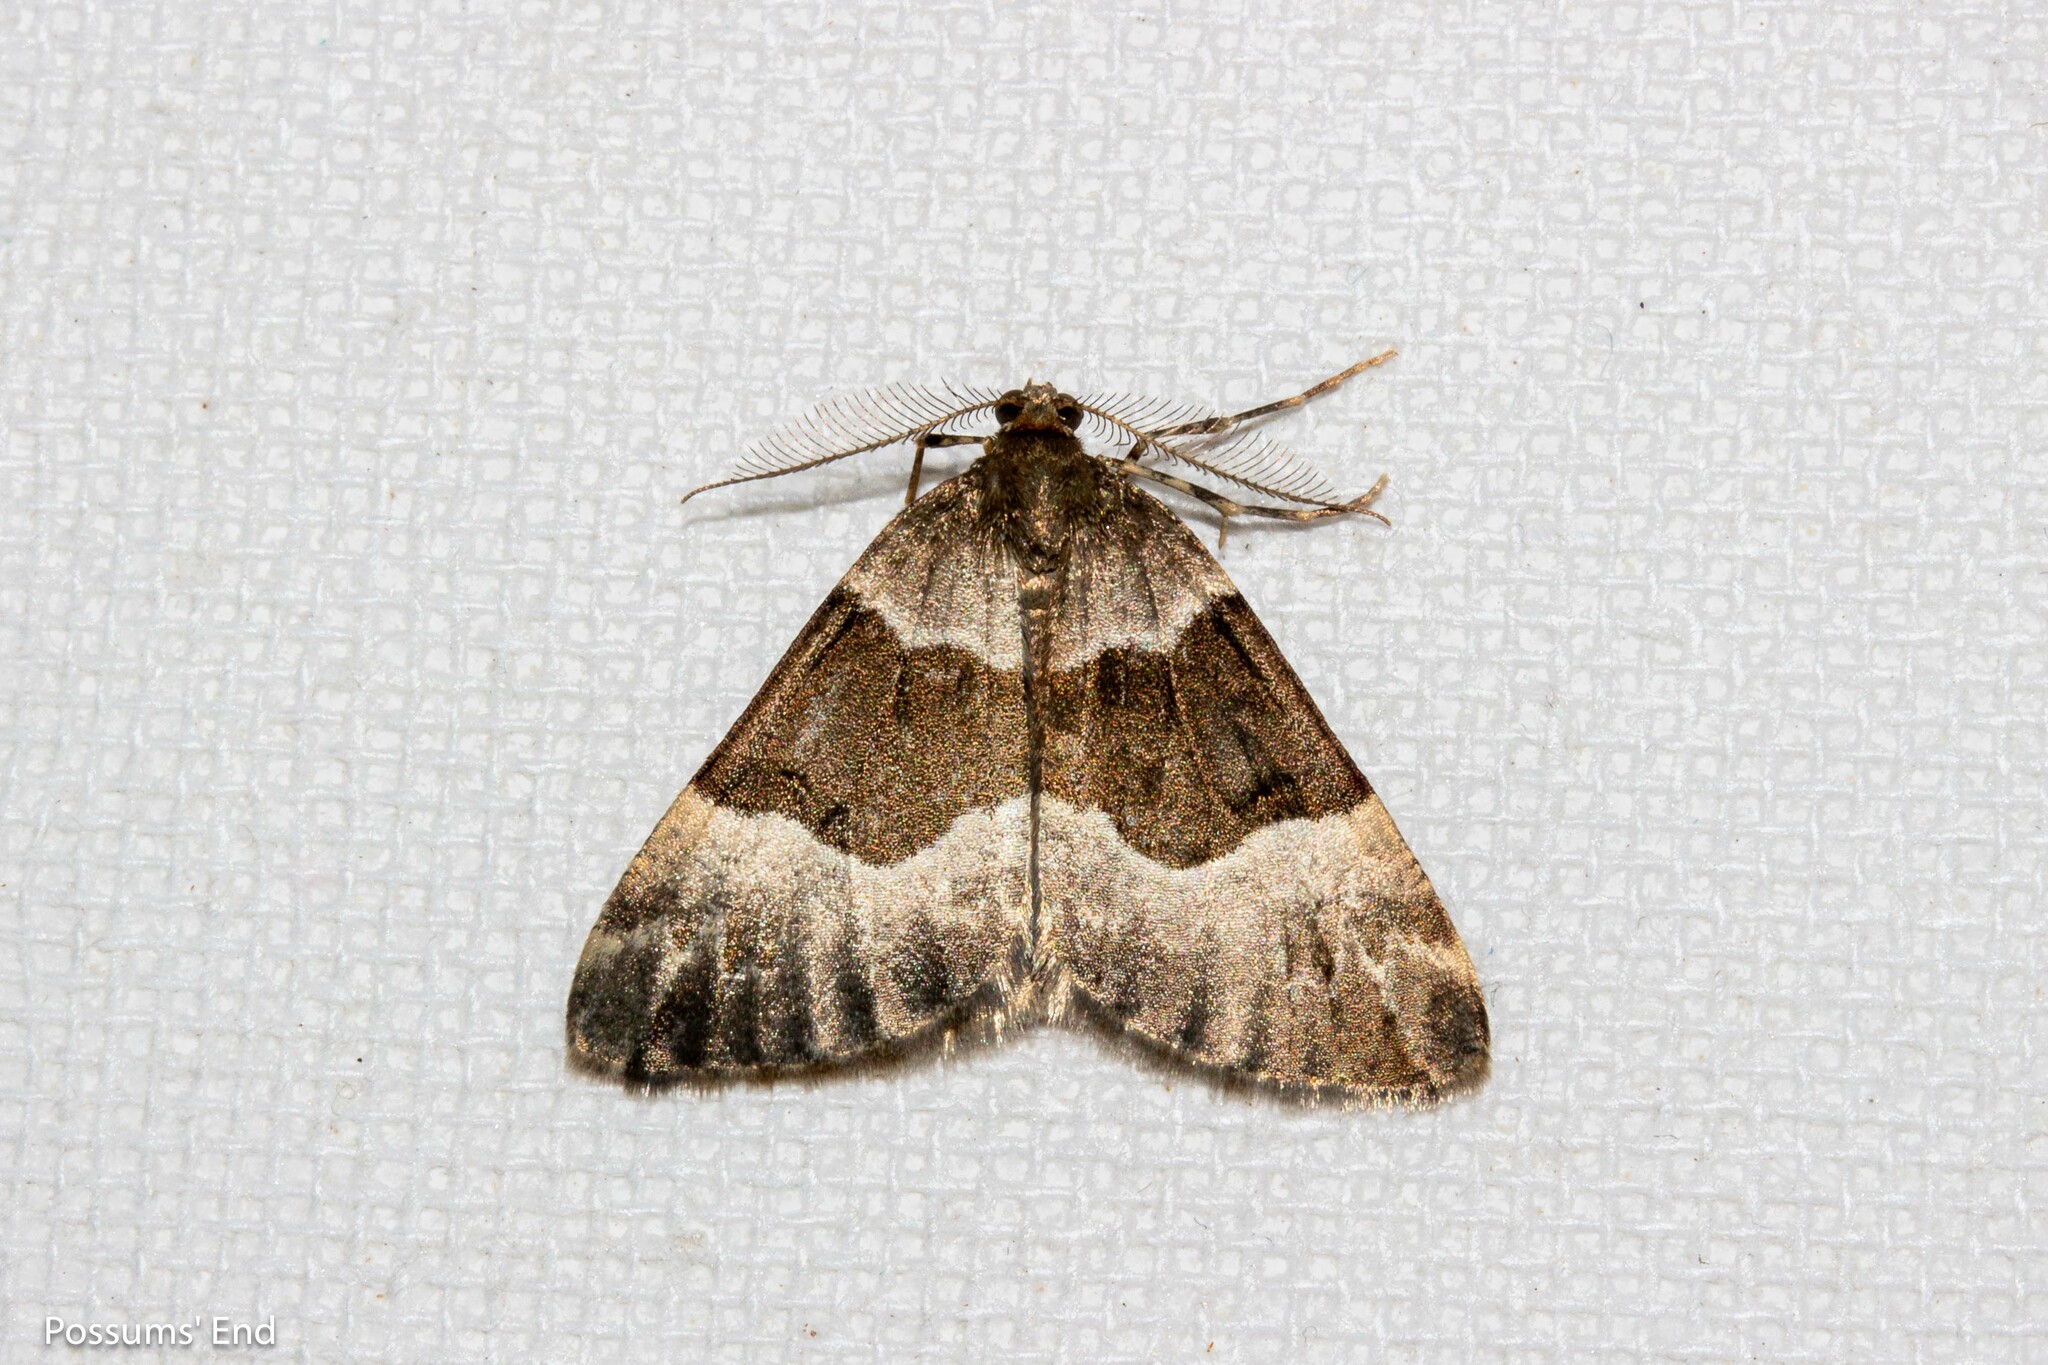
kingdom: Animalia
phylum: Arthropoda
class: Insecta
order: Lepidoptera
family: Geometridae
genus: Pseudocoremia
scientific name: Pseudocoremia
